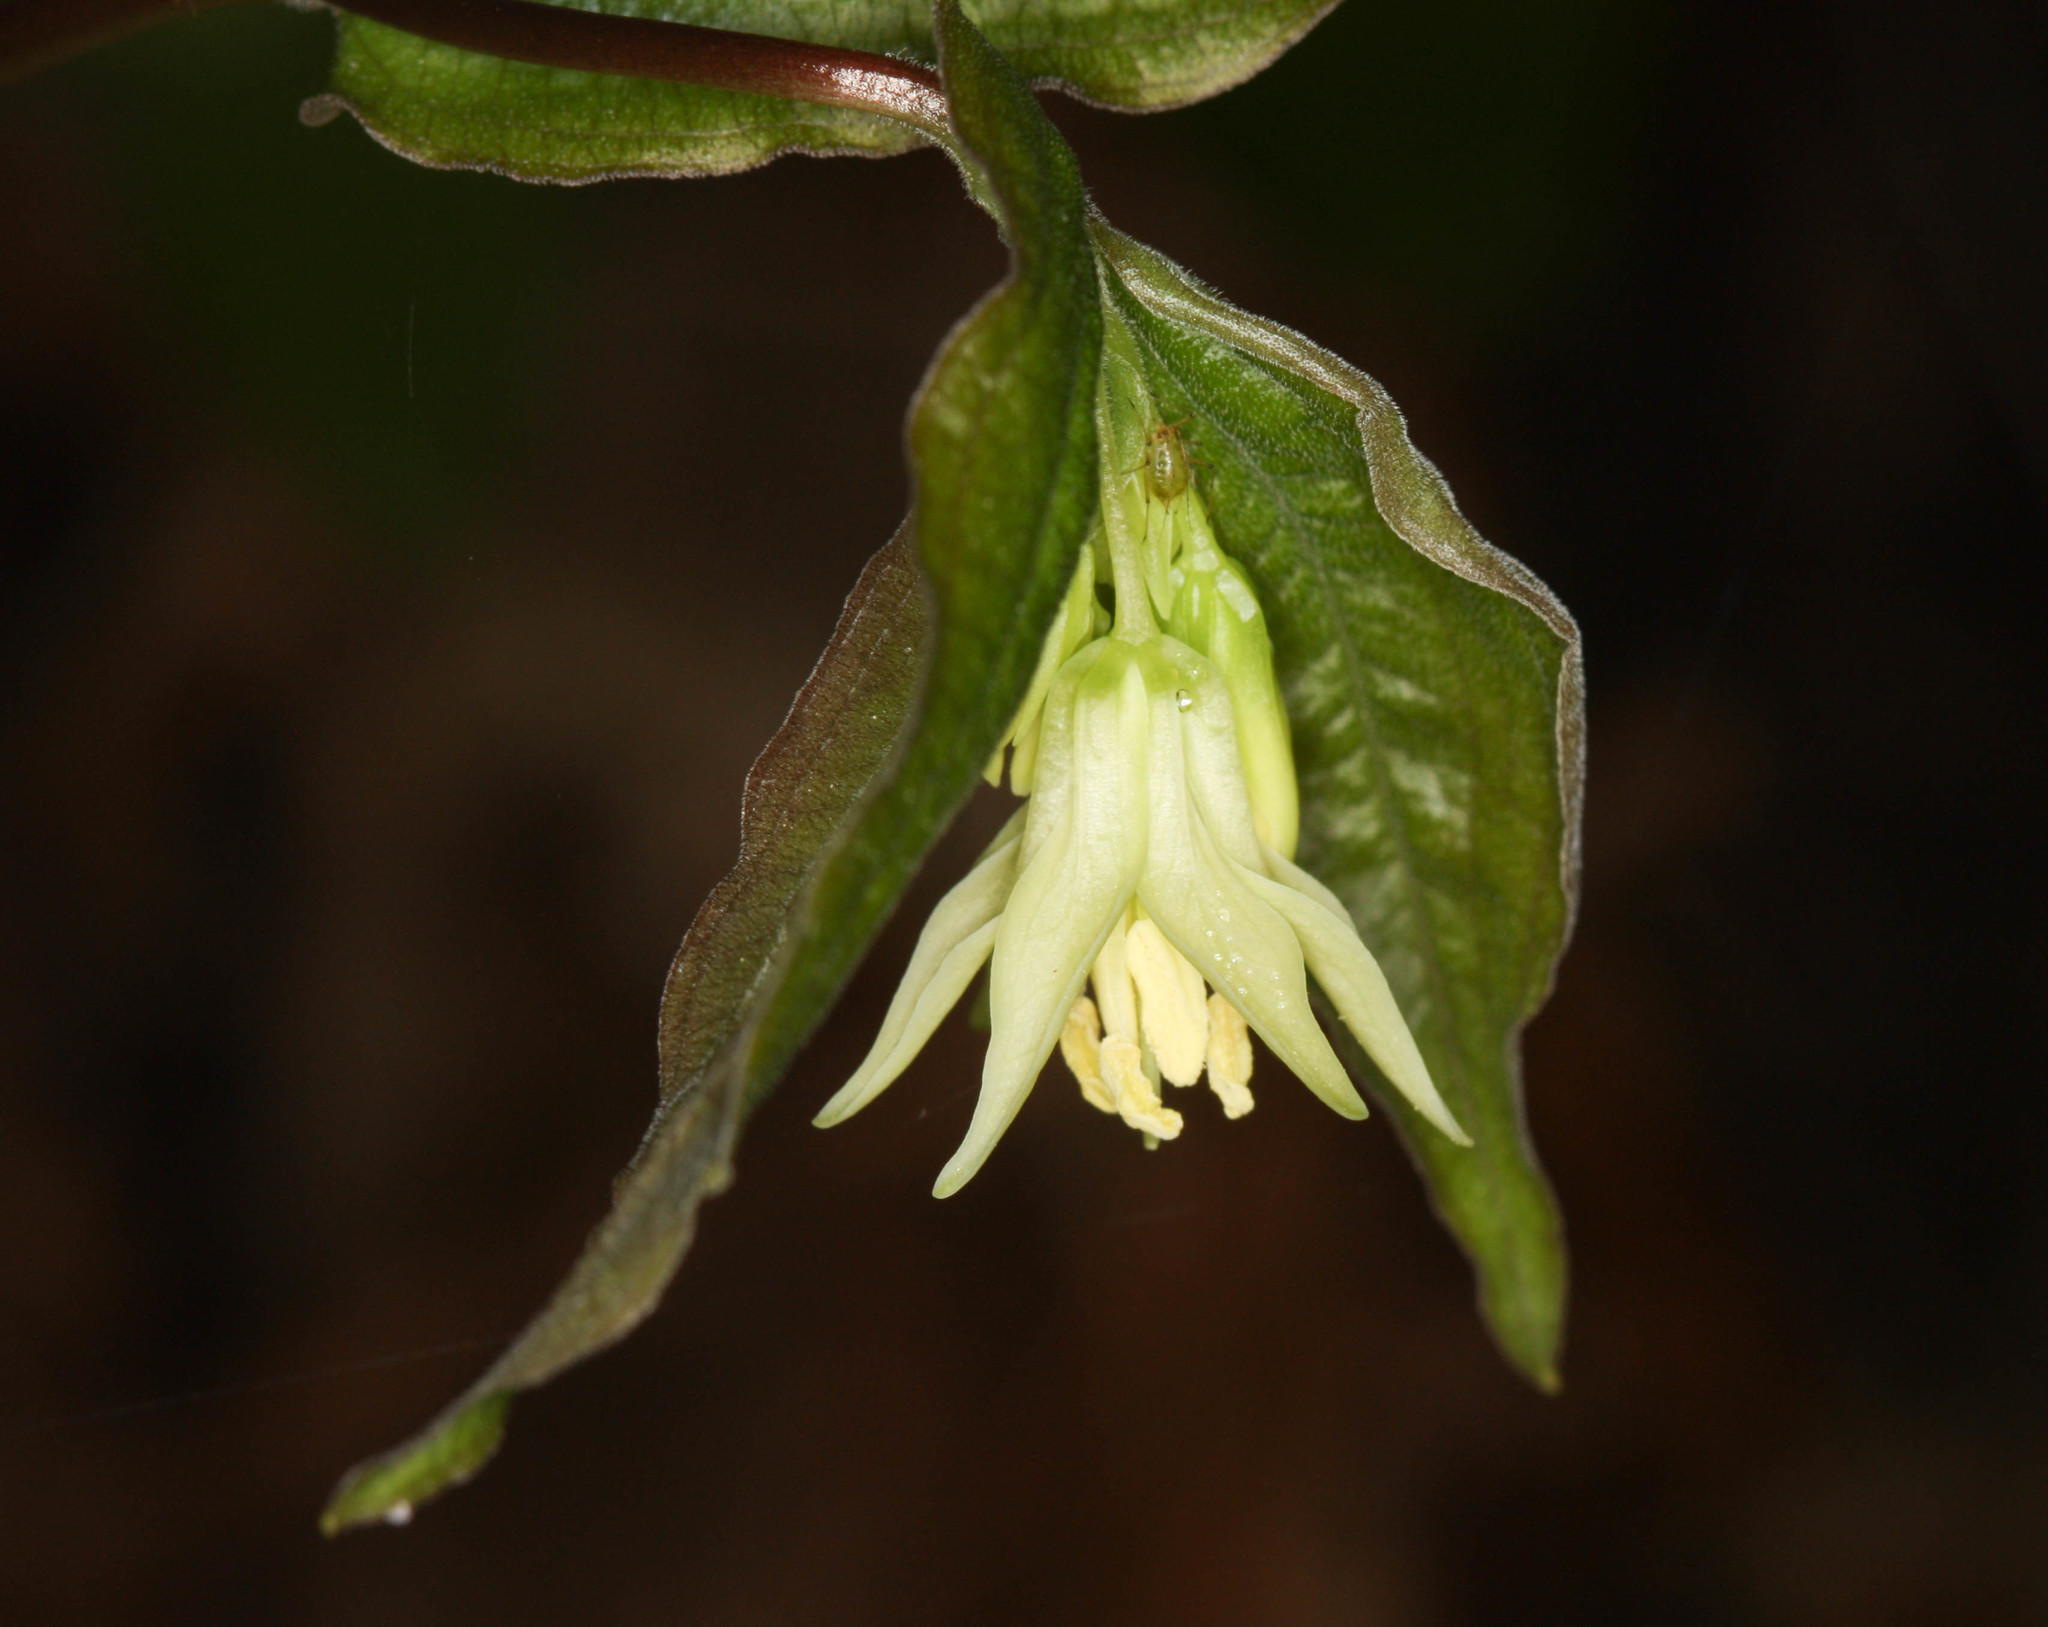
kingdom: Plantae
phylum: Tracheophyta
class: Liliopsida
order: Liliales
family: Liliaceae
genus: Prosartes
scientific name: Prosartes hookeri
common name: Fairy-bells
